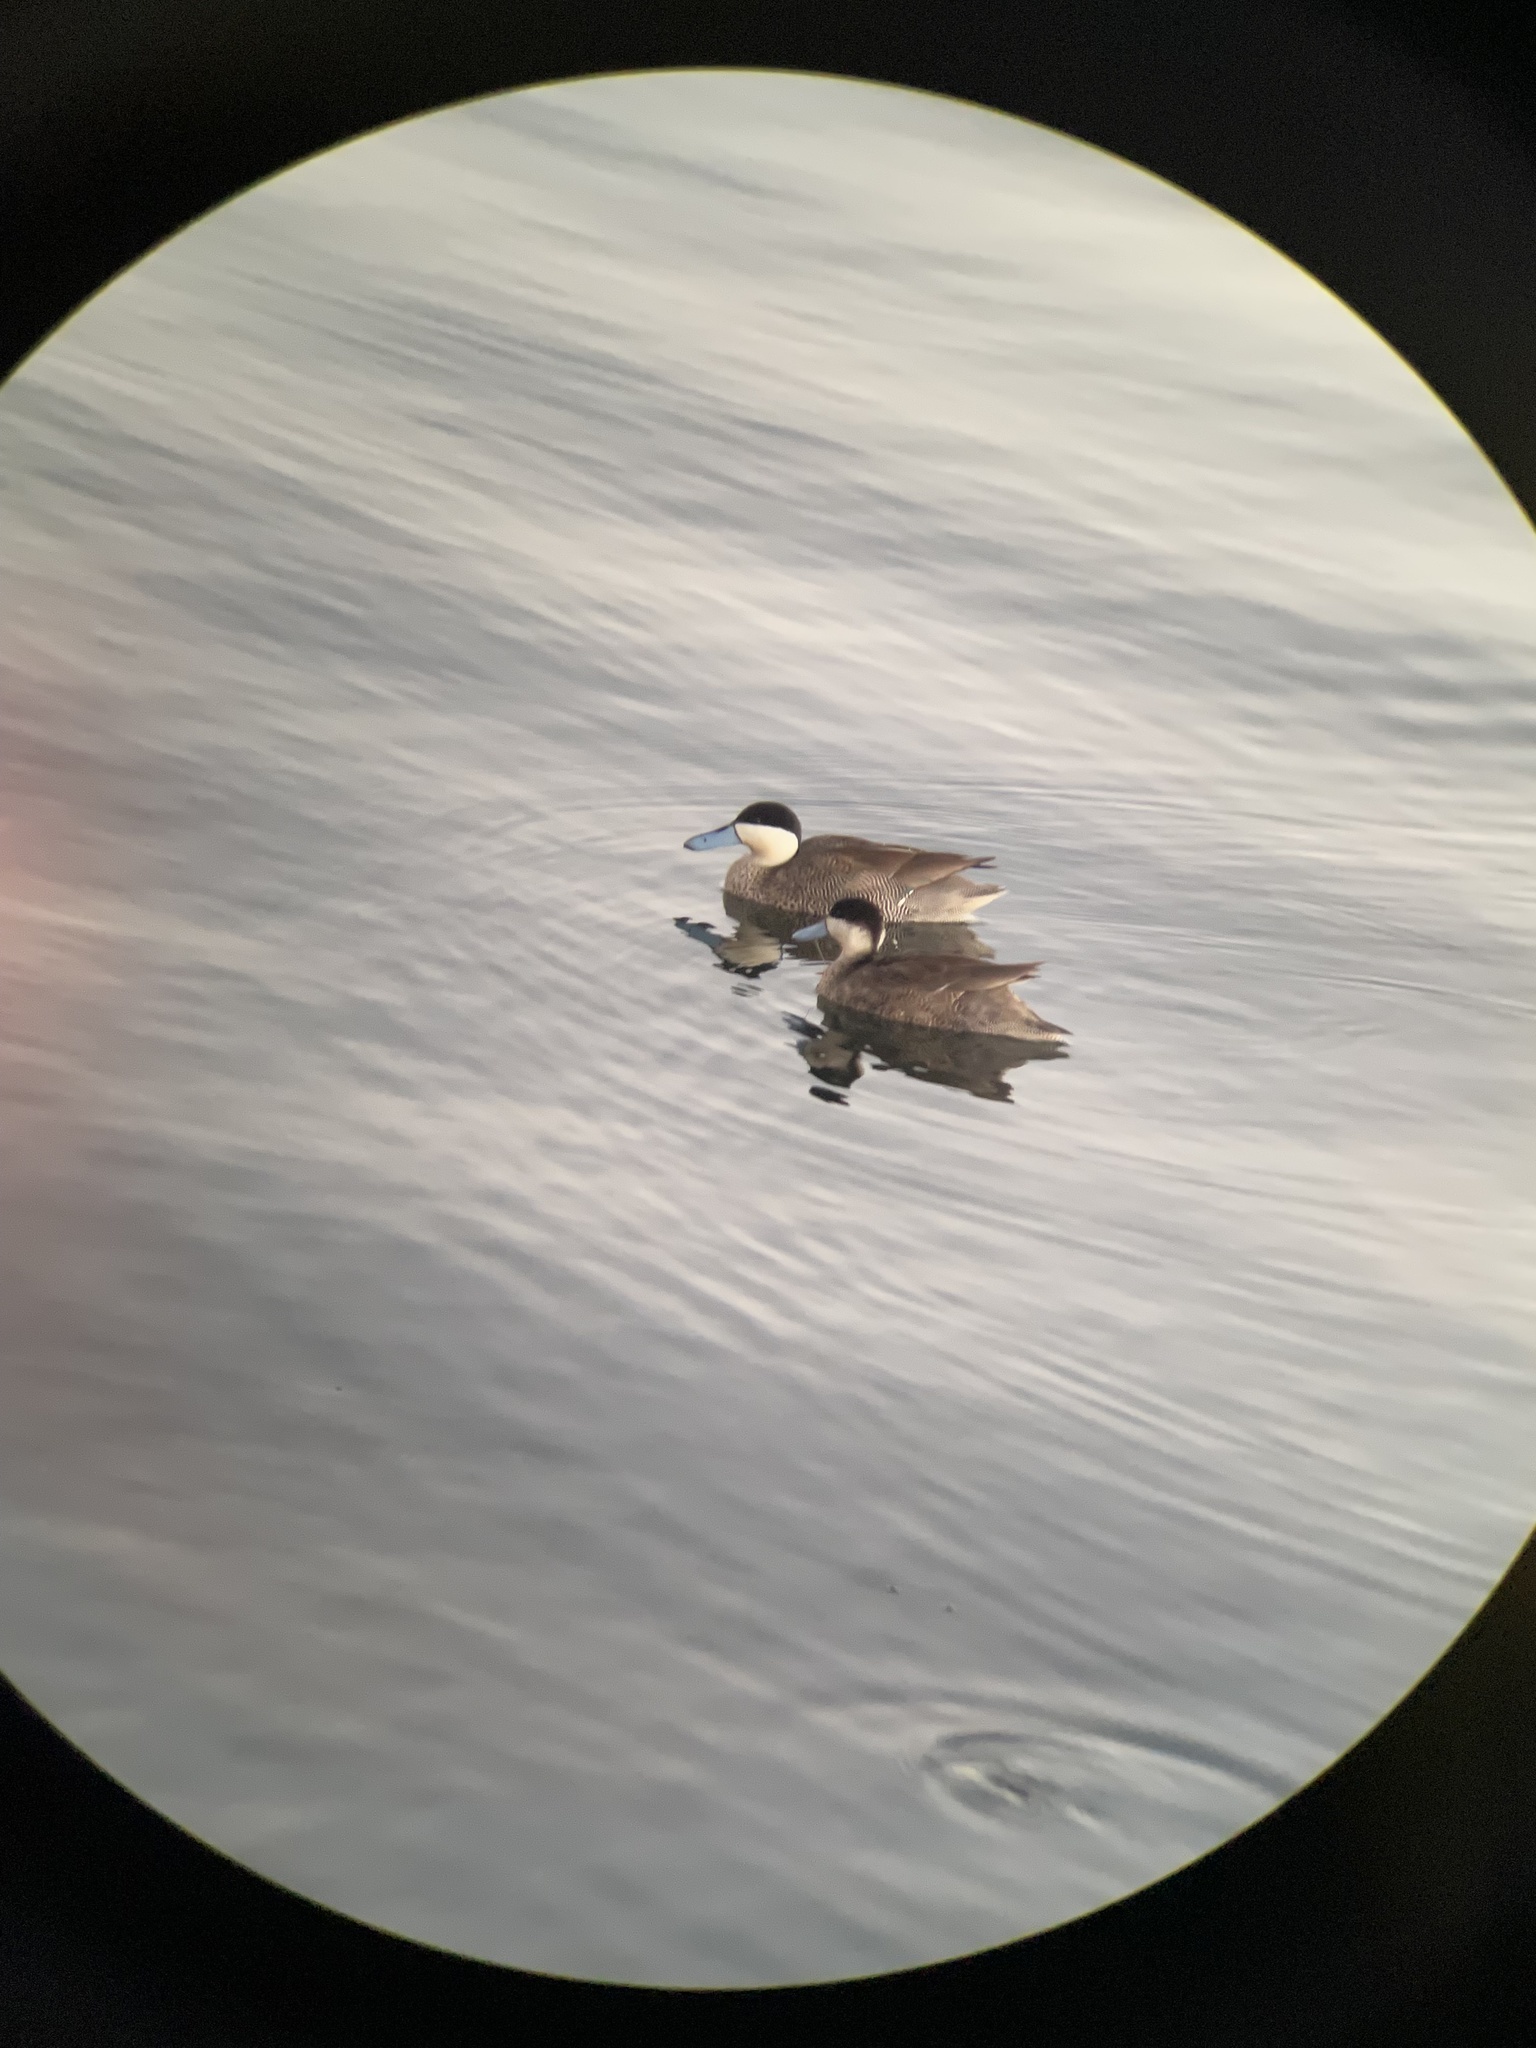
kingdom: Animalia
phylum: Chordata
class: Aves
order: Anseriformes
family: Anatidae
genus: Spatula
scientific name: Spatula puna
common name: Puna teal
